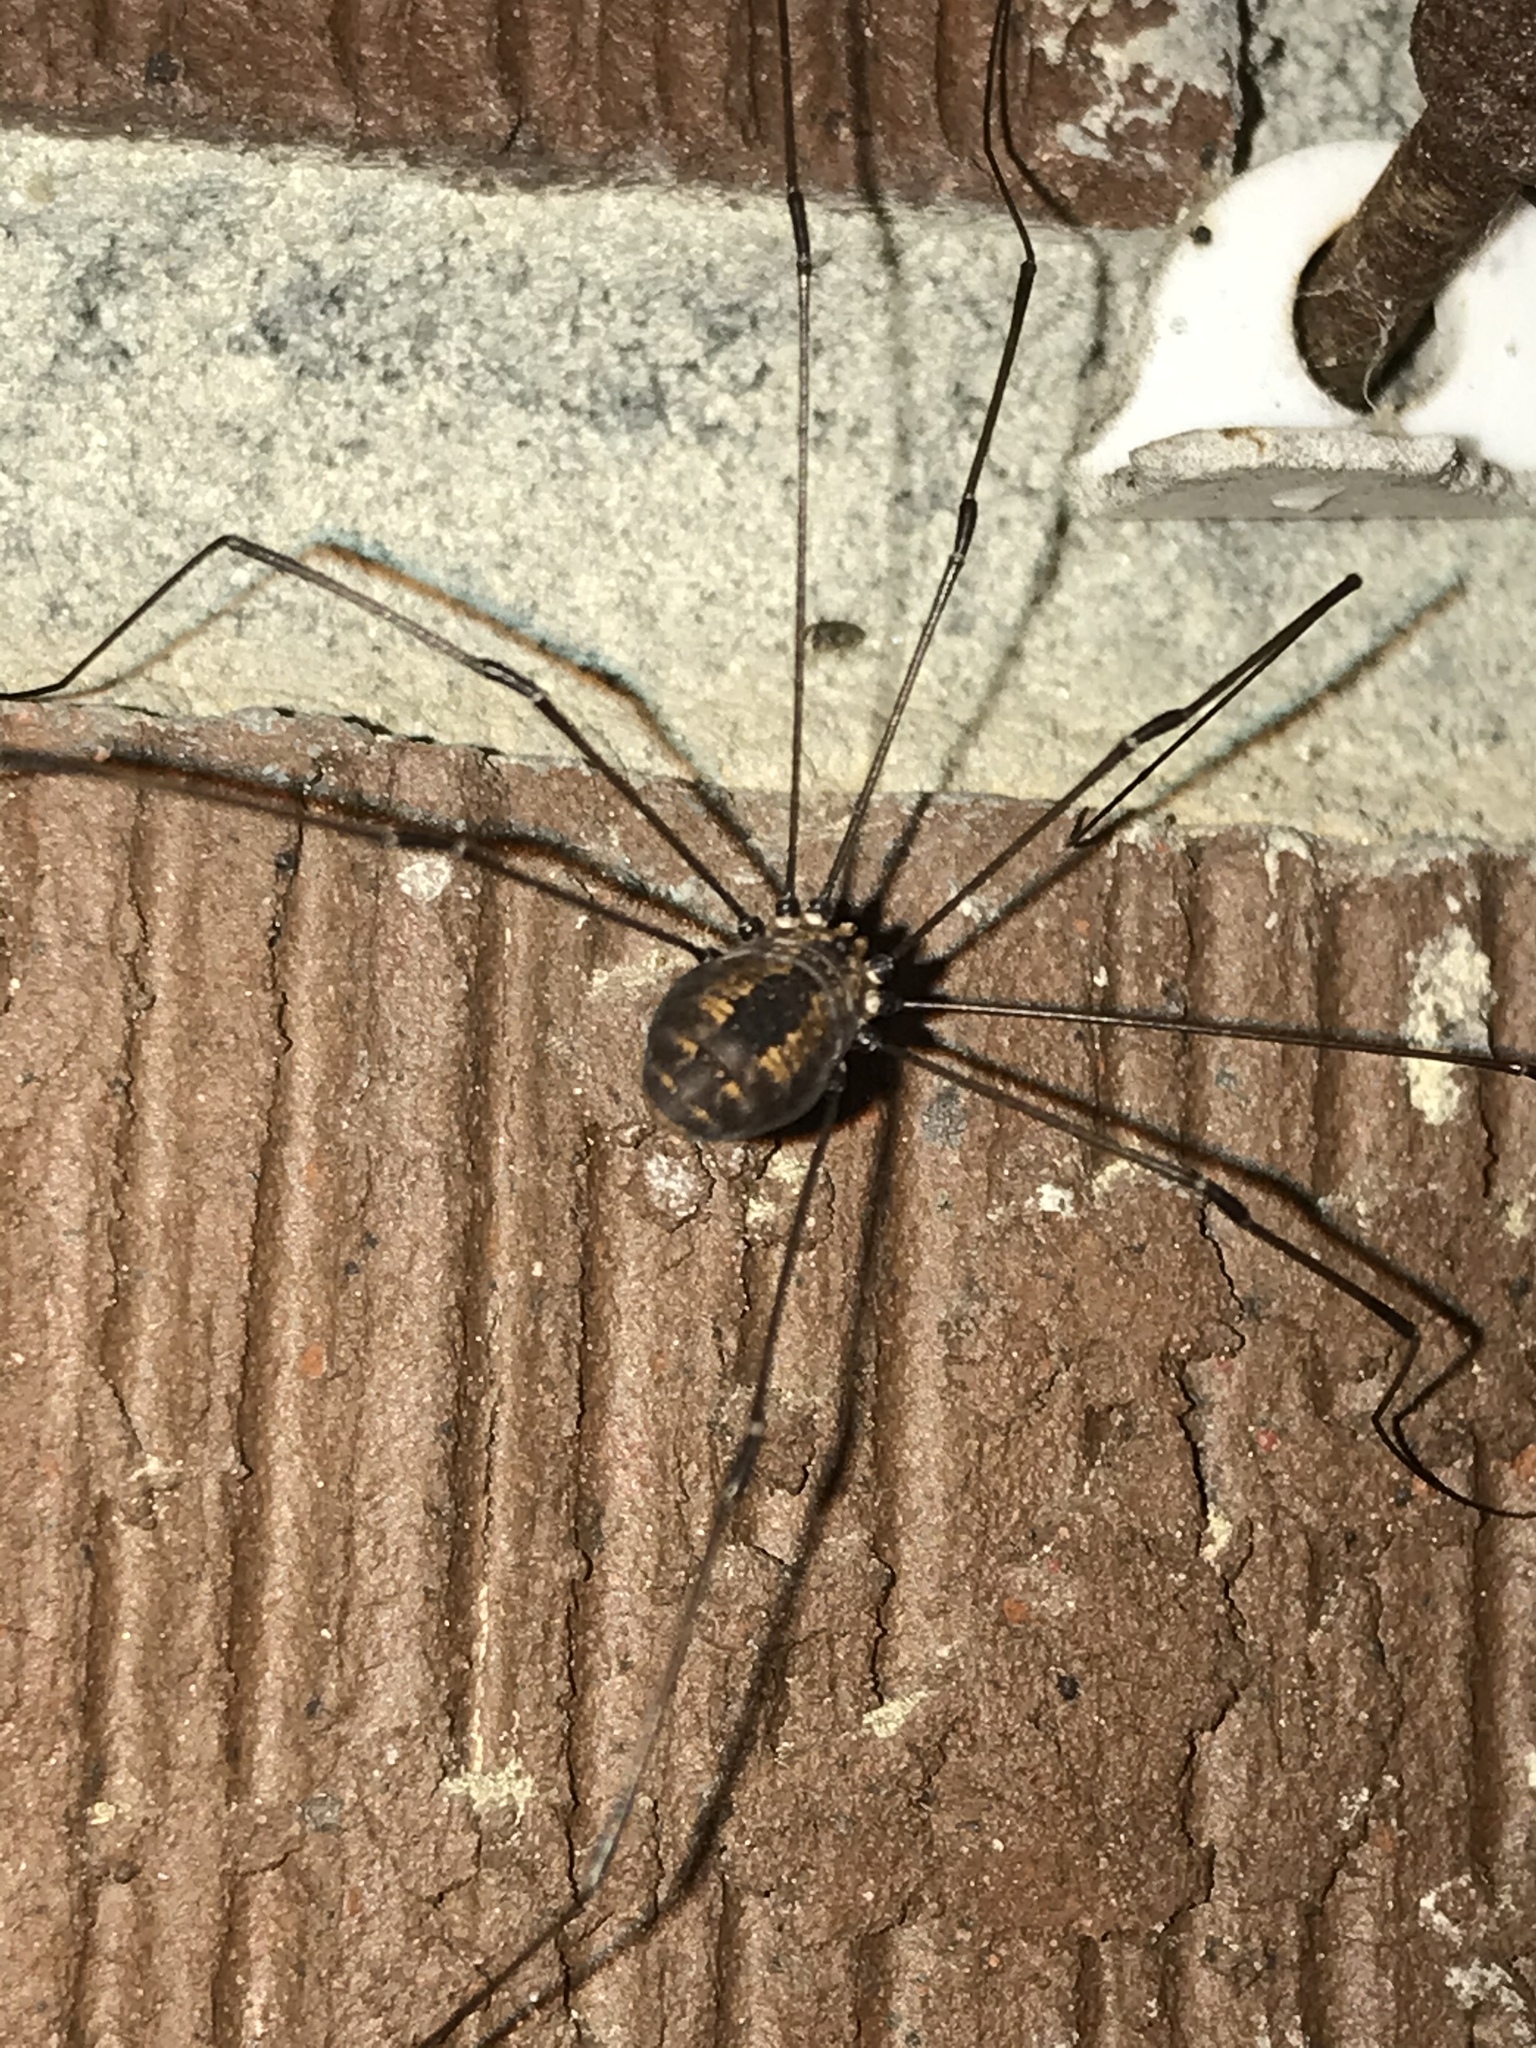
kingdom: Animalia
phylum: Arthropoda
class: Arachnida
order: Opiliones
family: Sclerosomatidae
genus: Leiobunum
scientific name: Leiobunum vittatum
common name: Eastern harvestman
